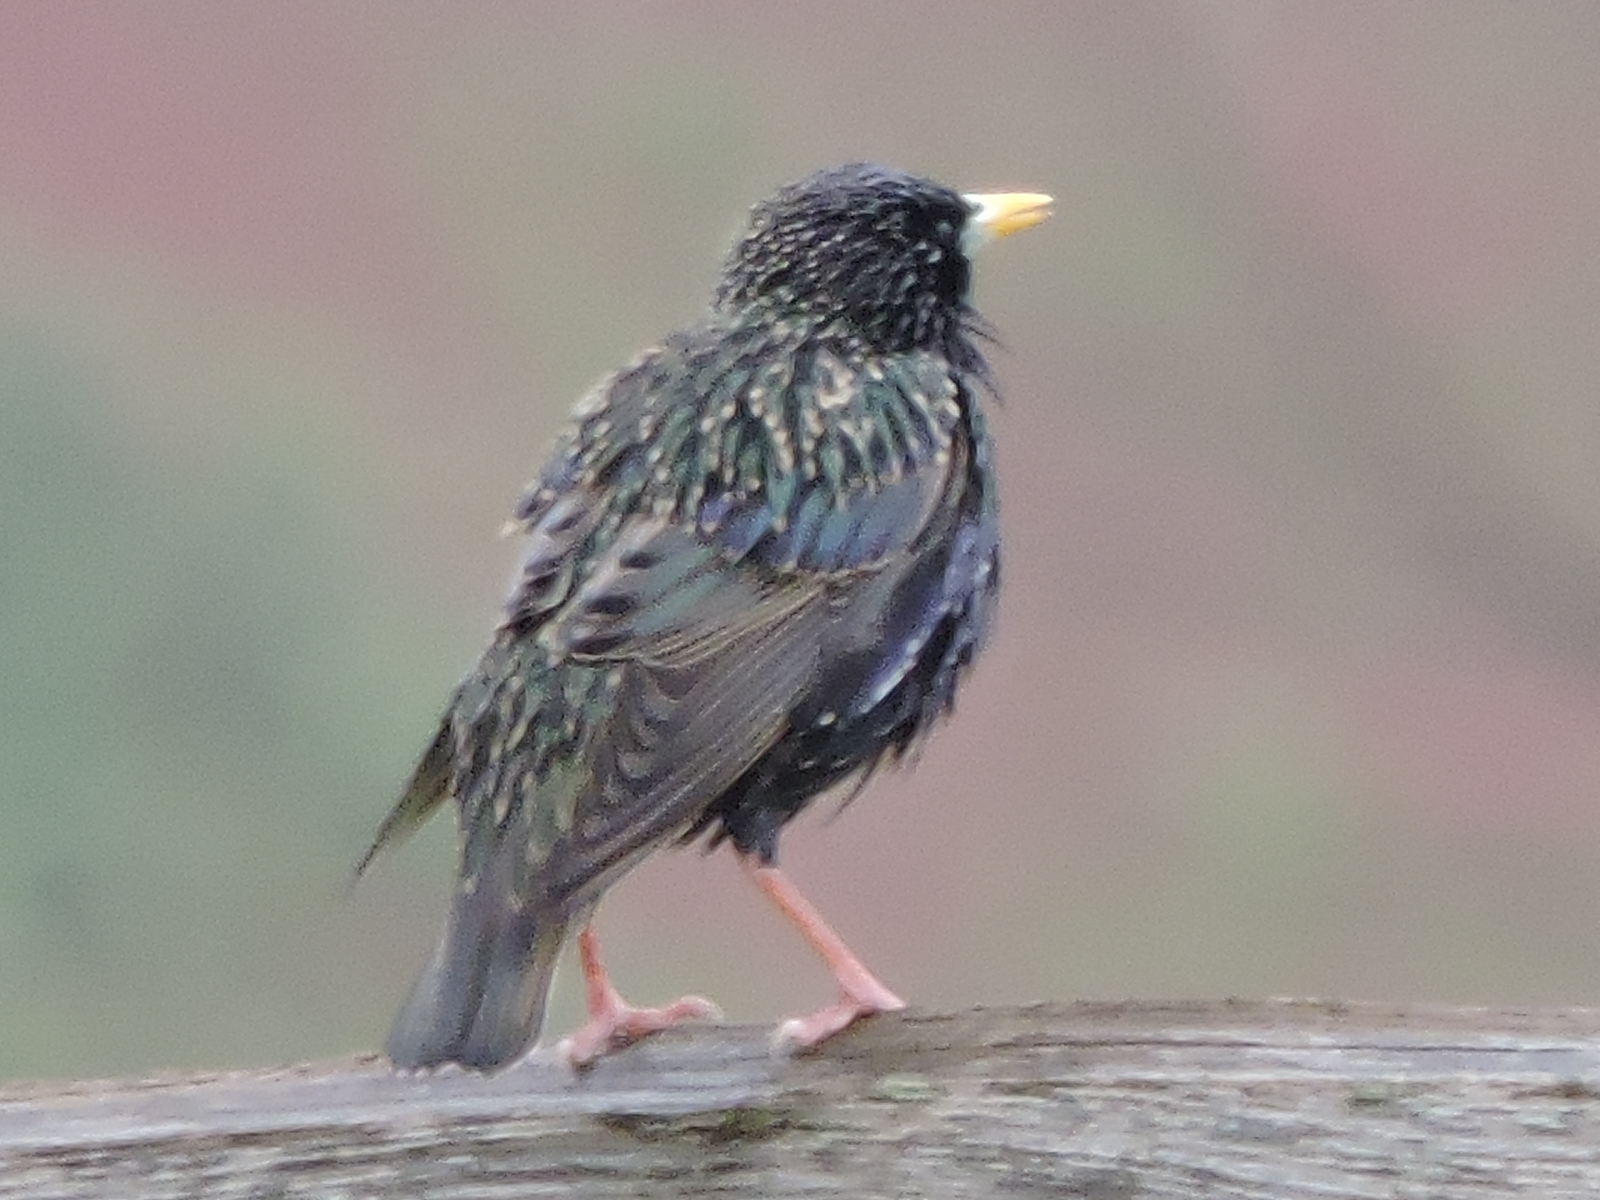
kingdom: Animalia
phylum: Chordata
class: Aves
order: Passeriformes
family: Sturnidae
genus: Sturnus
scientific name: Sturnus vulgaris
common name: Common starling
